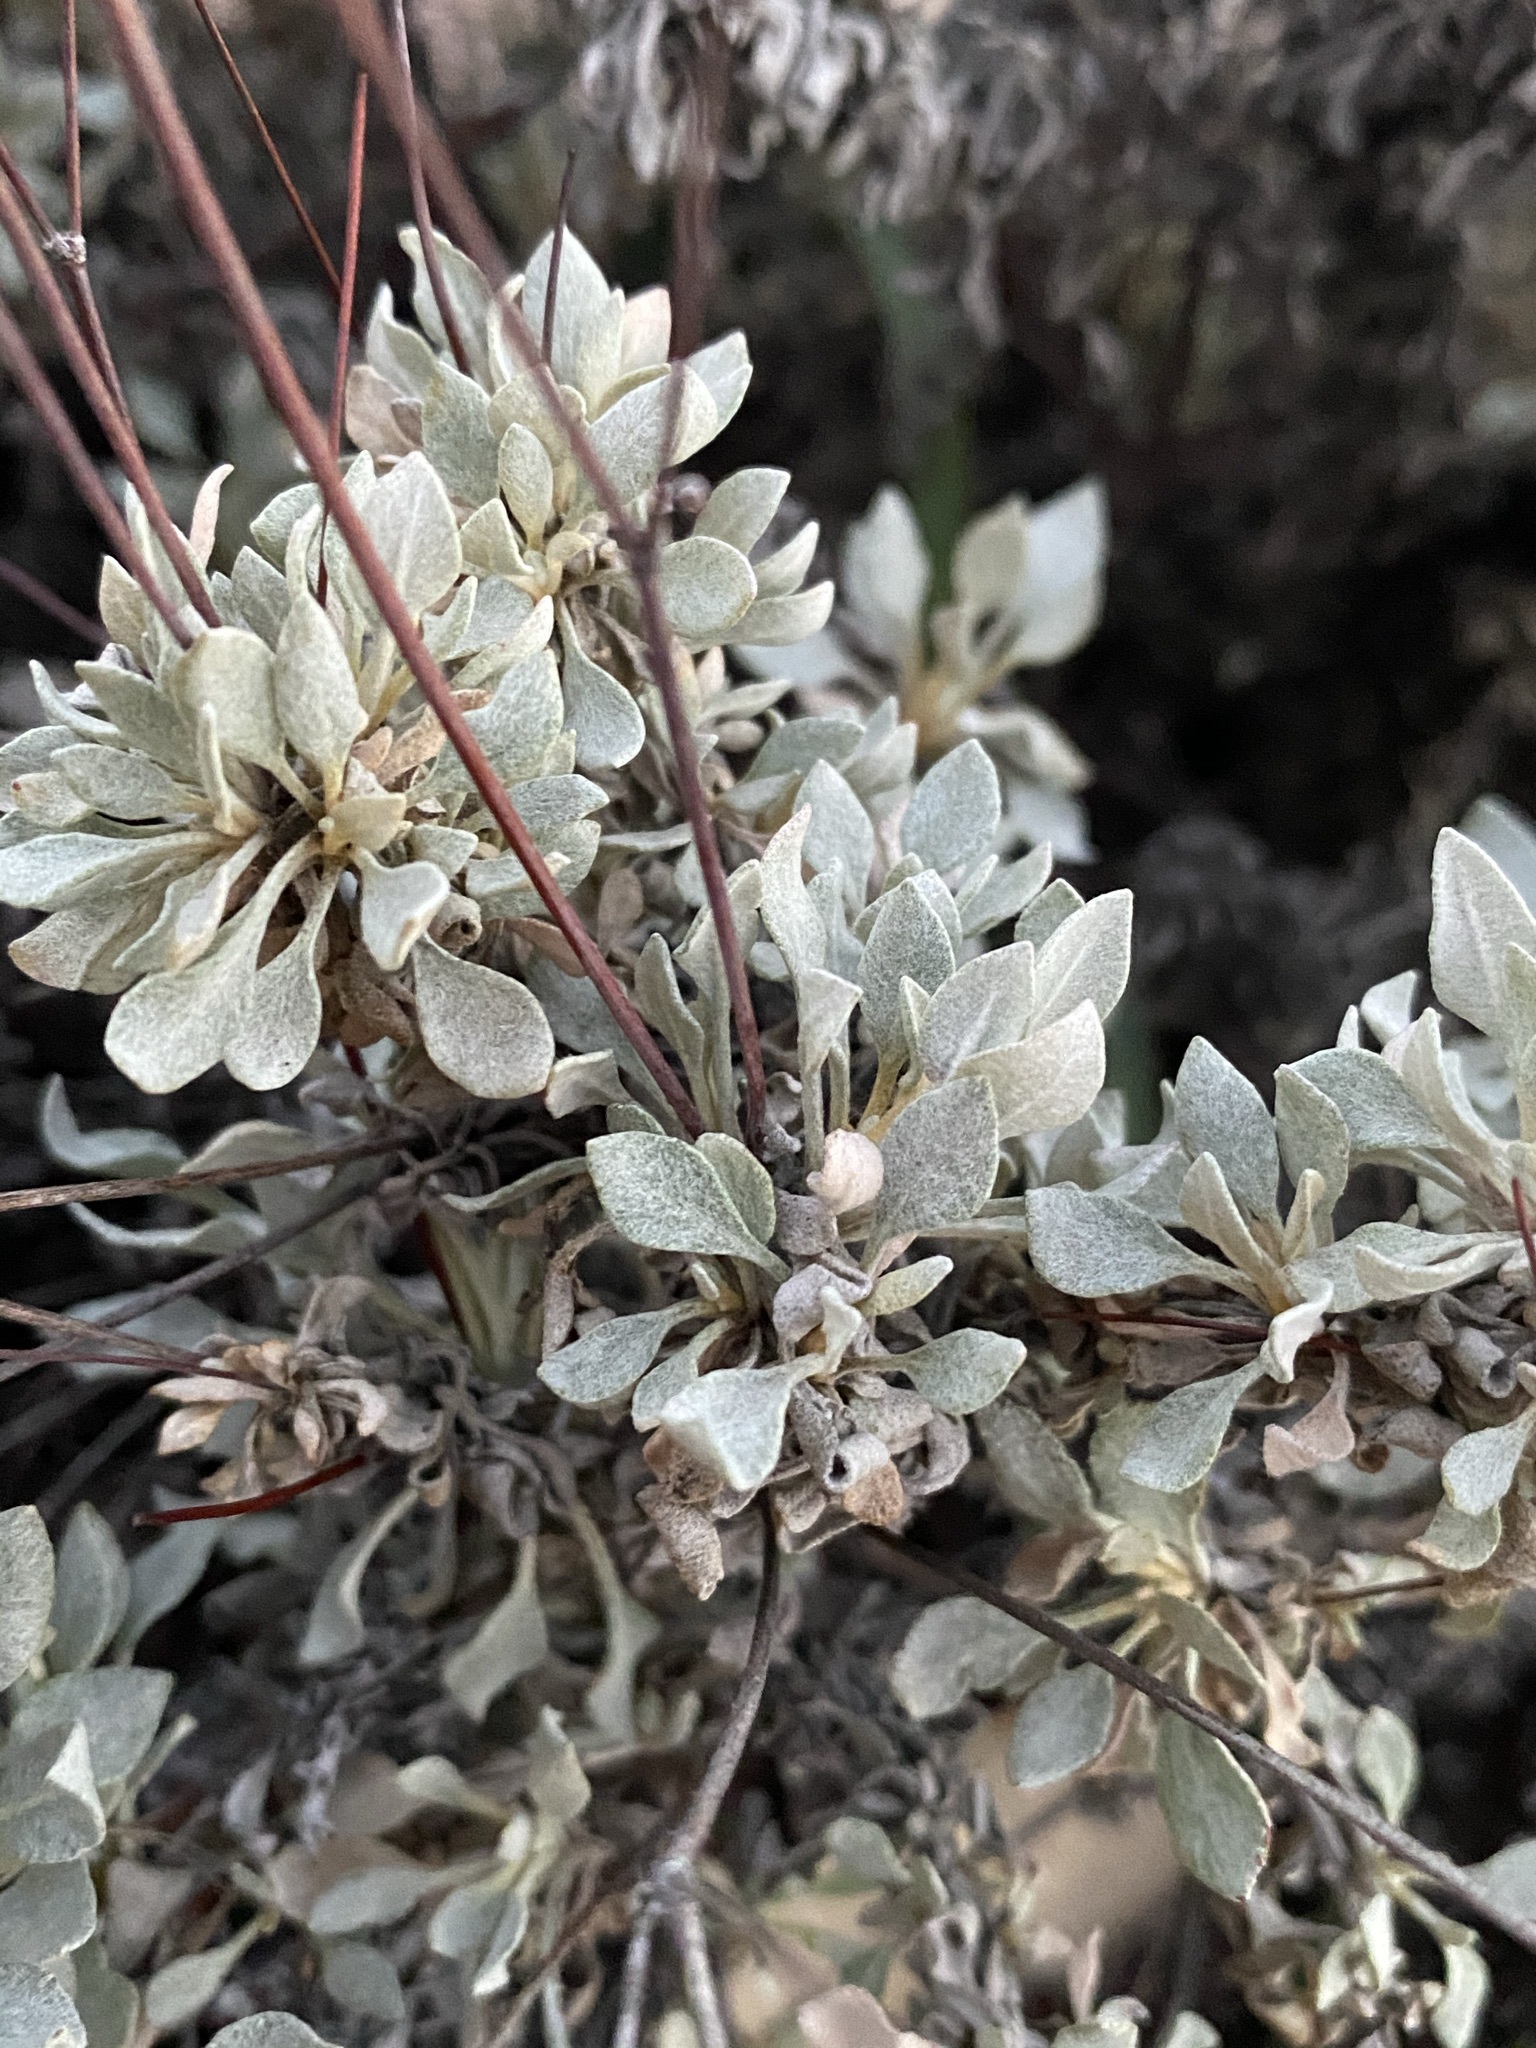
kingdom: Plantae
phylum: Tracheophyta
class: Magnoliopsida
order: Caryophyllales
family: Polygonaceae
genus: Eriogonum
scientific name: Eriogonum graniticum
